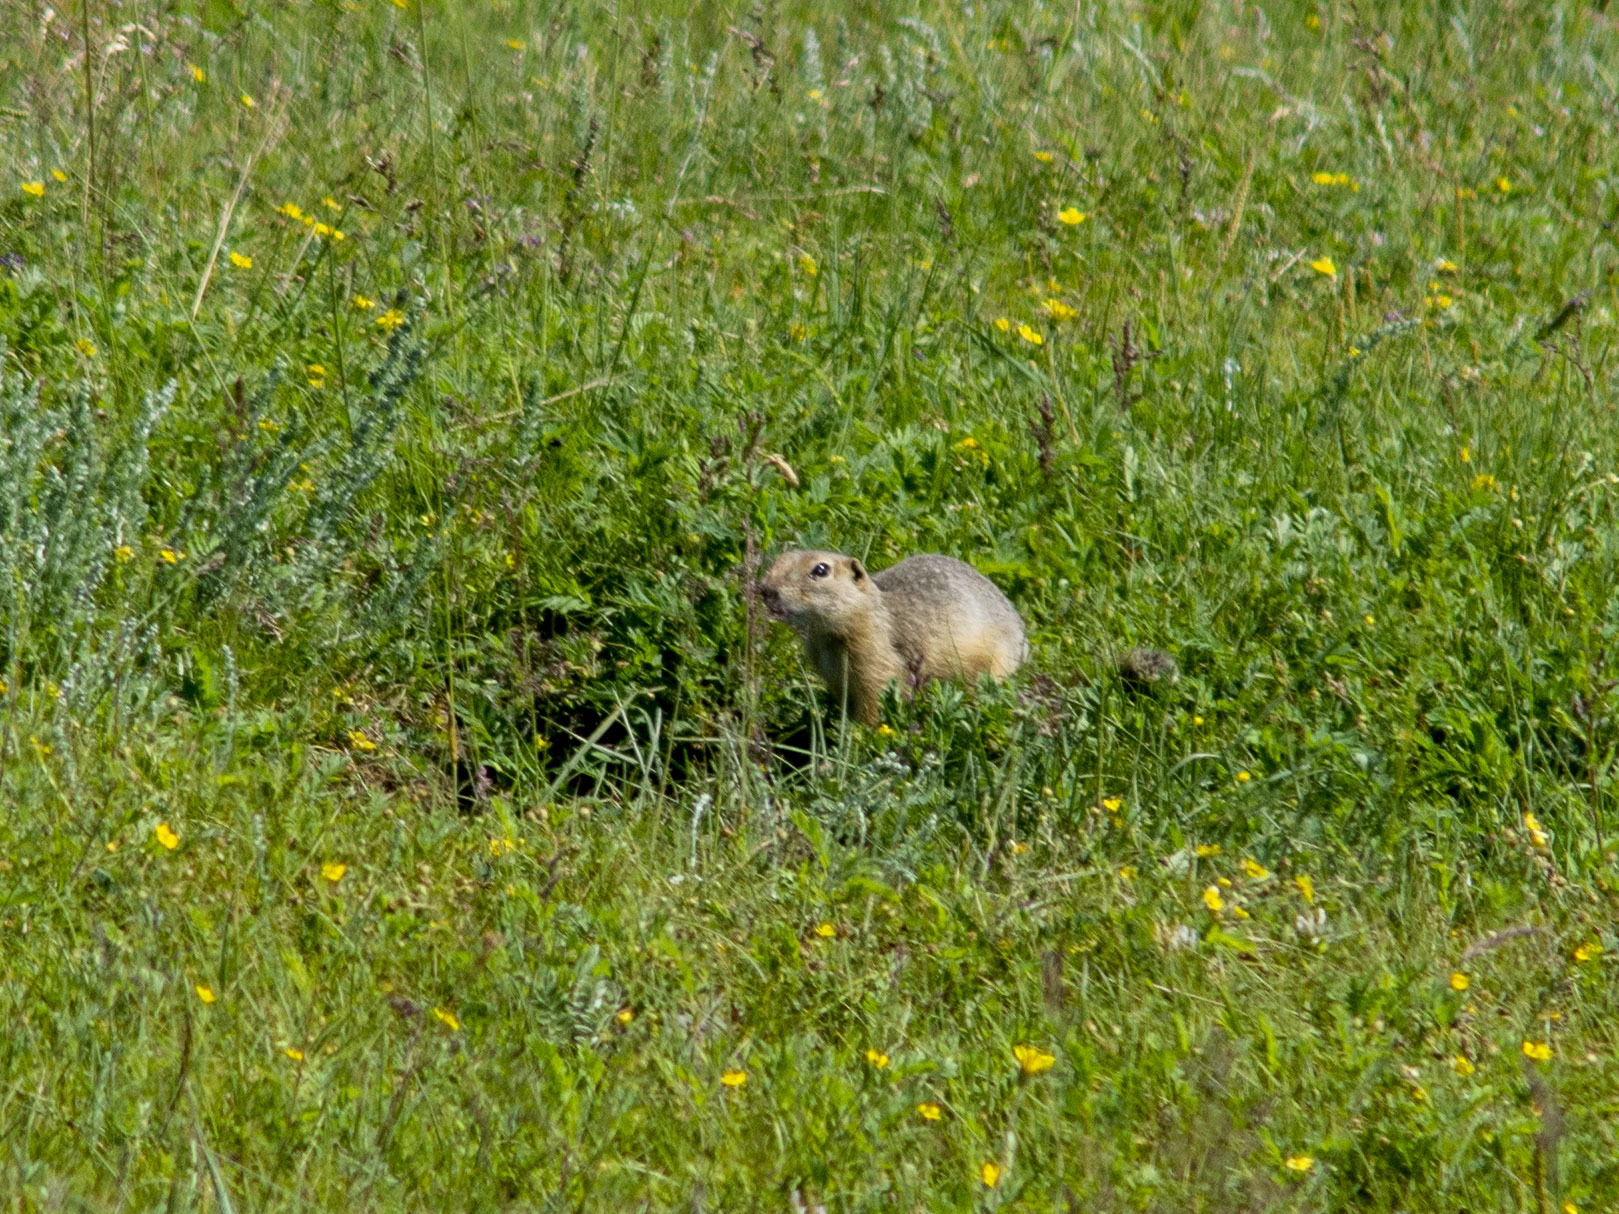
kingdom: Animalia
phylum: Chordata
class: Mammalia
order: Rodentia
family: Sciuridae
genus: Urocitellus
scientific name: Urocitellus undulatus
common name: Long-tailed ground squirrel
